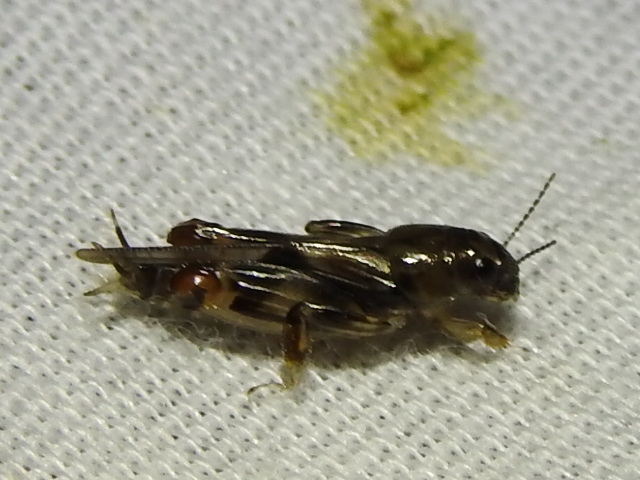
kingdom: Animalia
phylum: Arthropoda
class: Insecta
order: Orthoptera
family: Tridactylidae
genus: Neotridactylus
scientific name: Neotridactylus apicialis
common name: Larger pygmy locust
